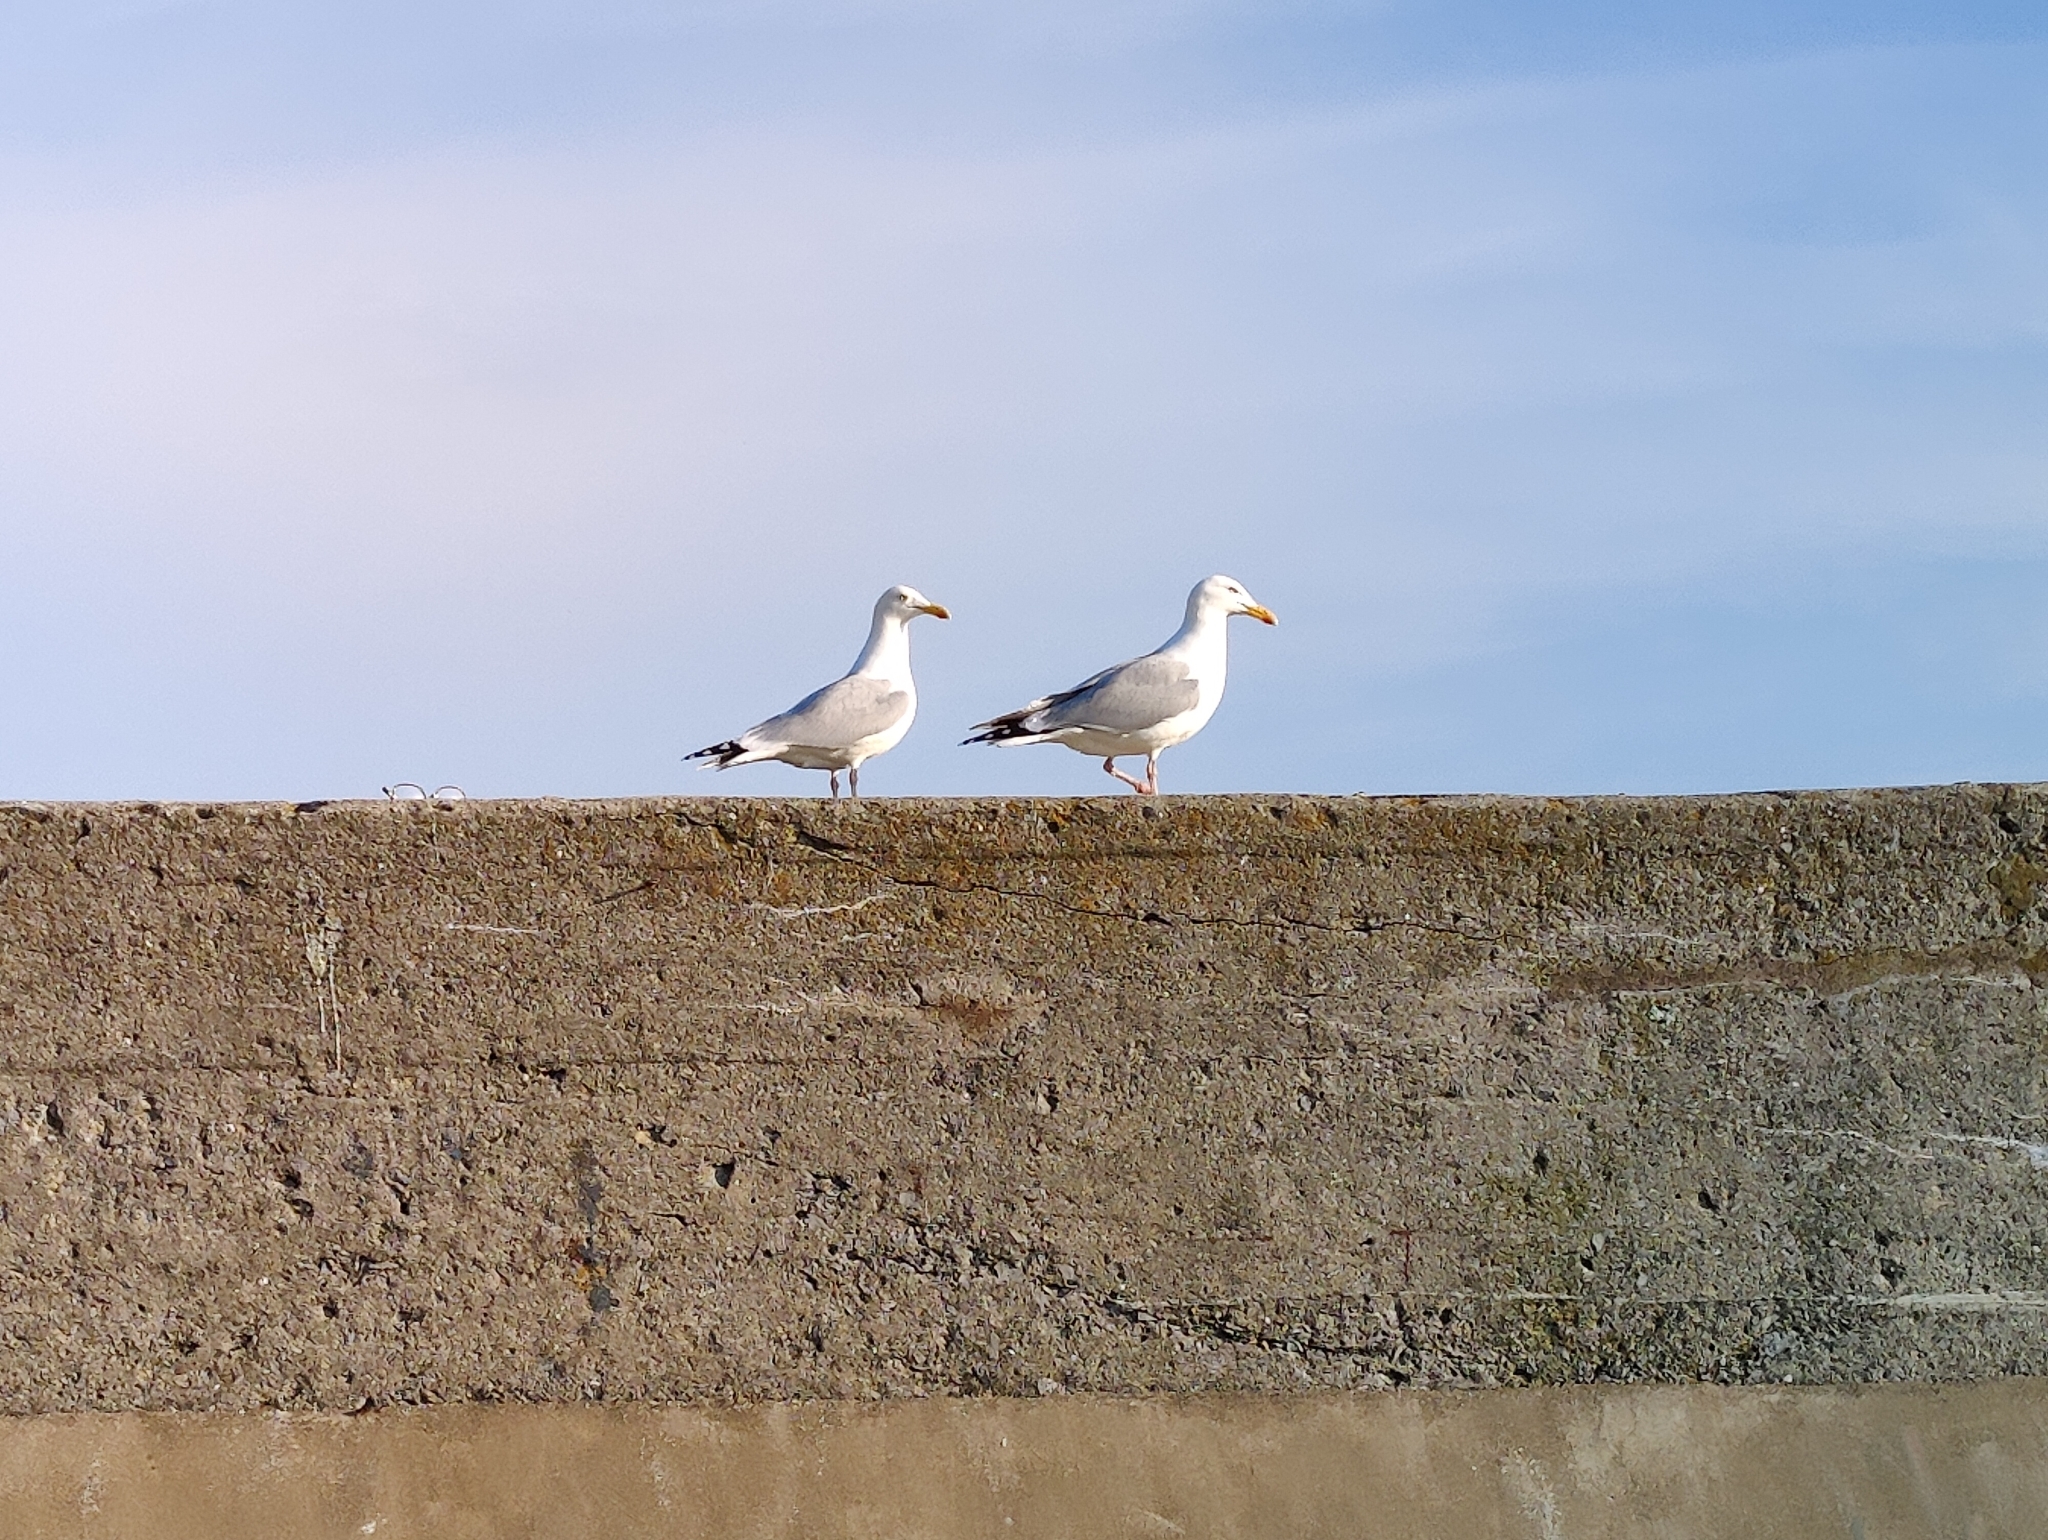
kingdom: Animalia
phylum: Chordata
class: Aves
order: Charadriiformes
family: Laridae
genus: Larus
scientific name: Larus argentatus
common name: Herring gull
